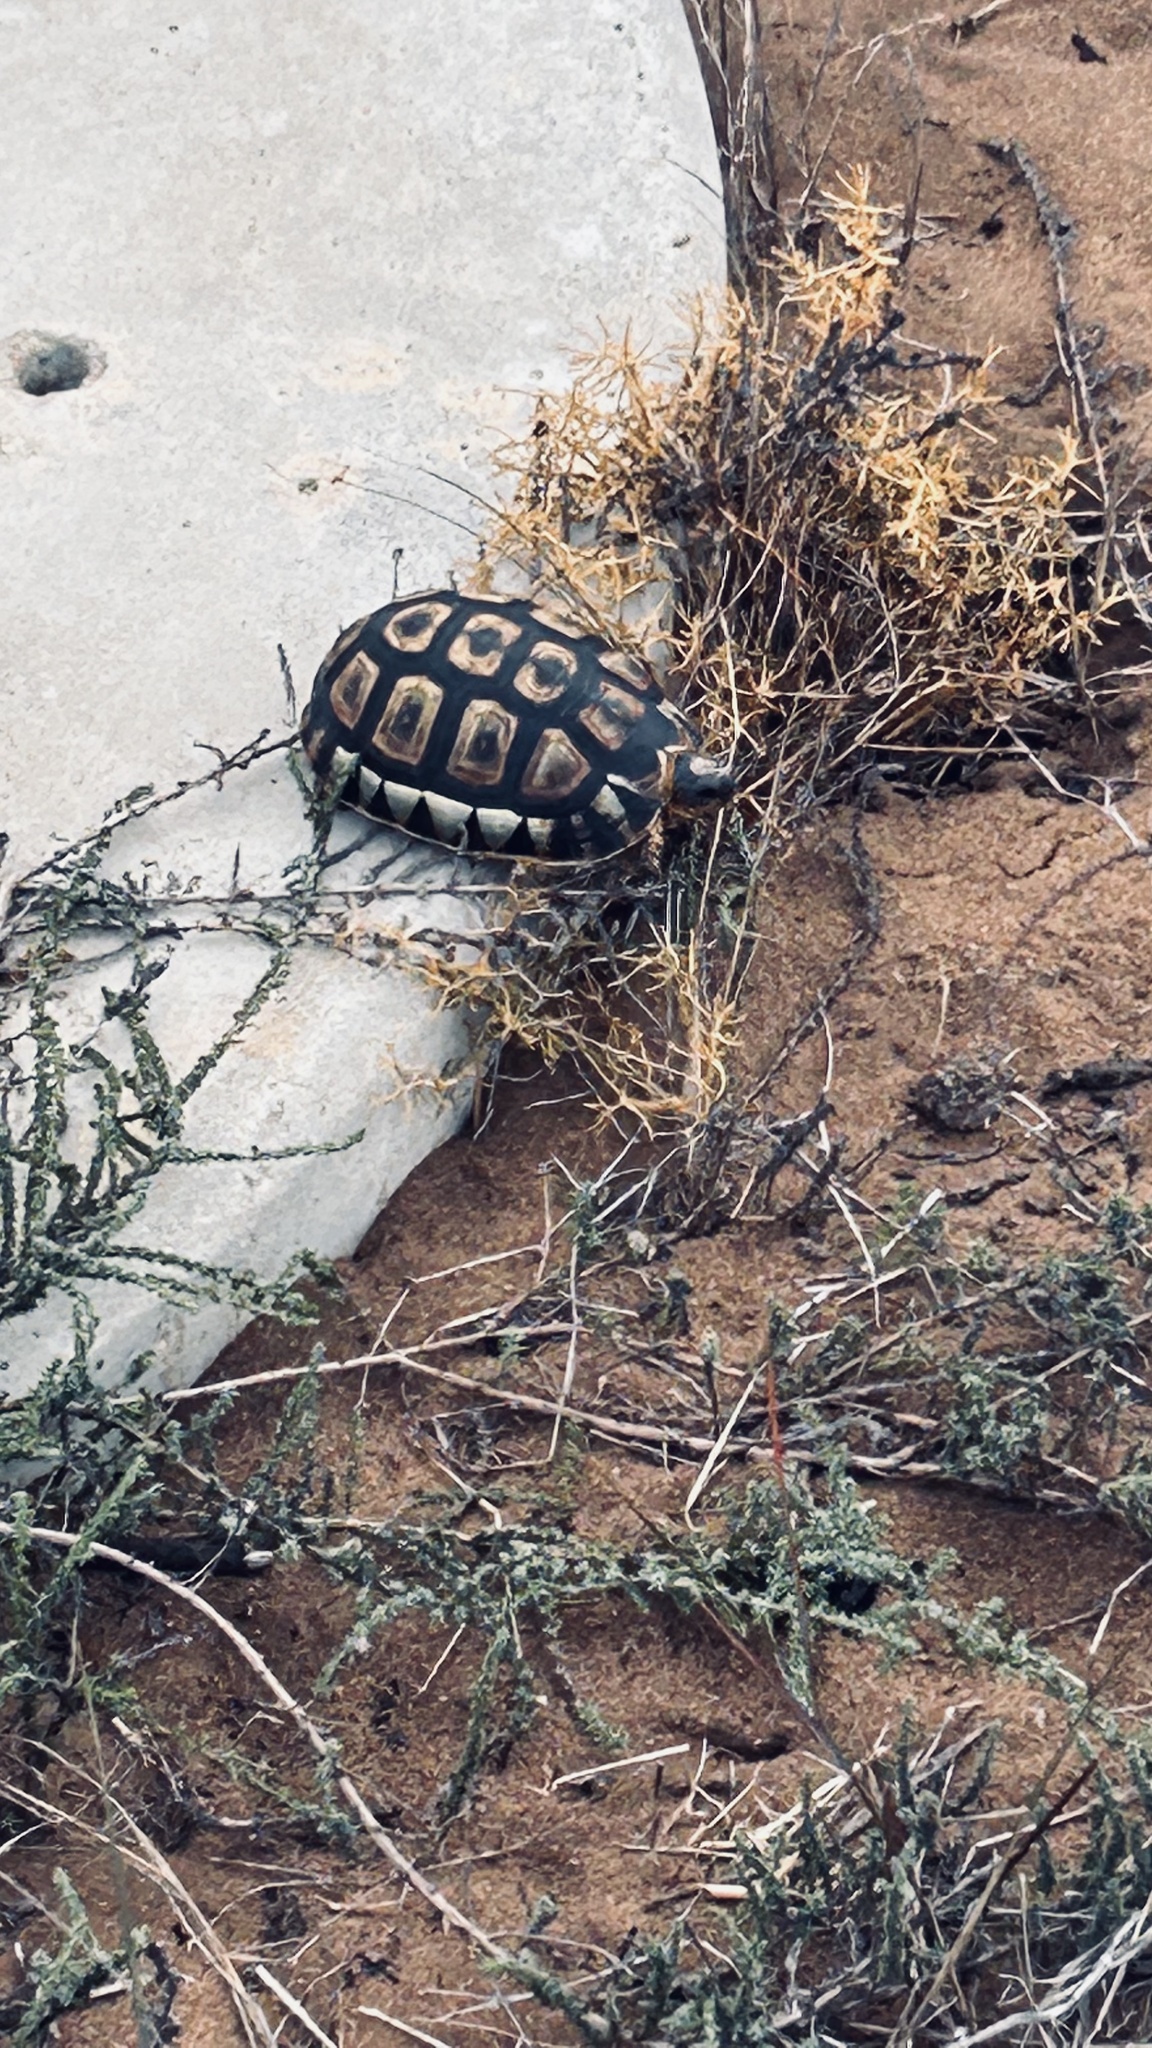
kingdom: Animalia
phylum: Chordata
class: Testudines
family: Testudinidae
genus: Chersina
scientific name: Chersina angulata
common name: South african bowsprit tortoise
